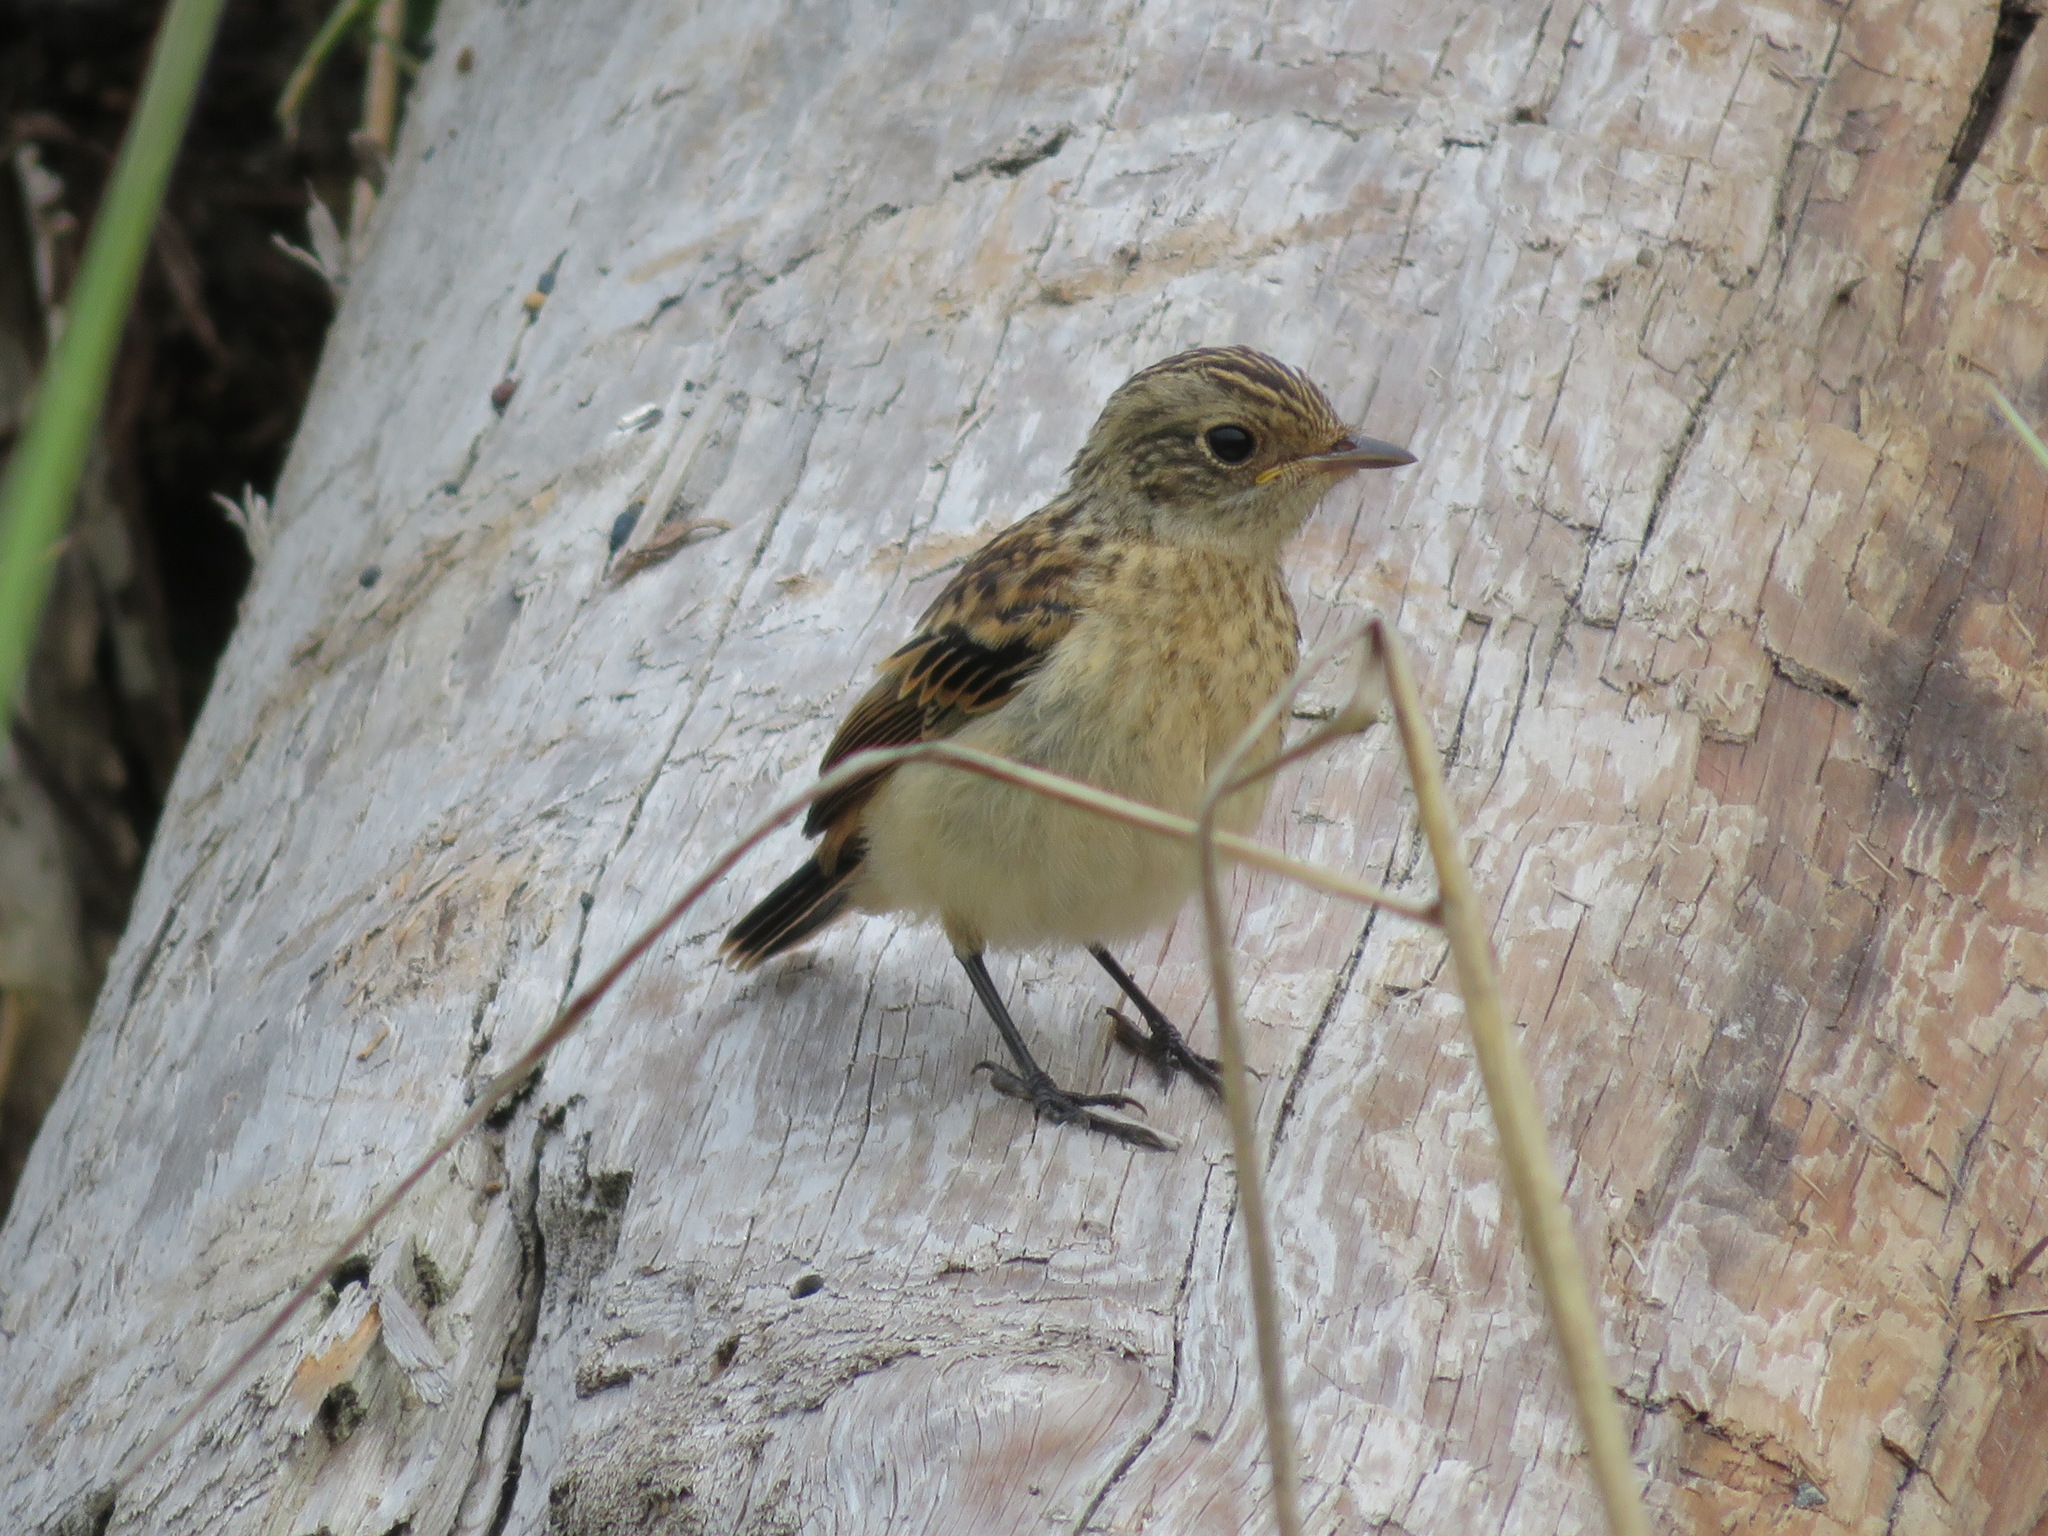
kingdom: Animalia
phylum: Chordata
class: Aves
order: Passeriformes
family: Muscicapidae
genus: Saxicola
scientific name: Saxicola stejnegeri
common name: Stejneger's stonechat
